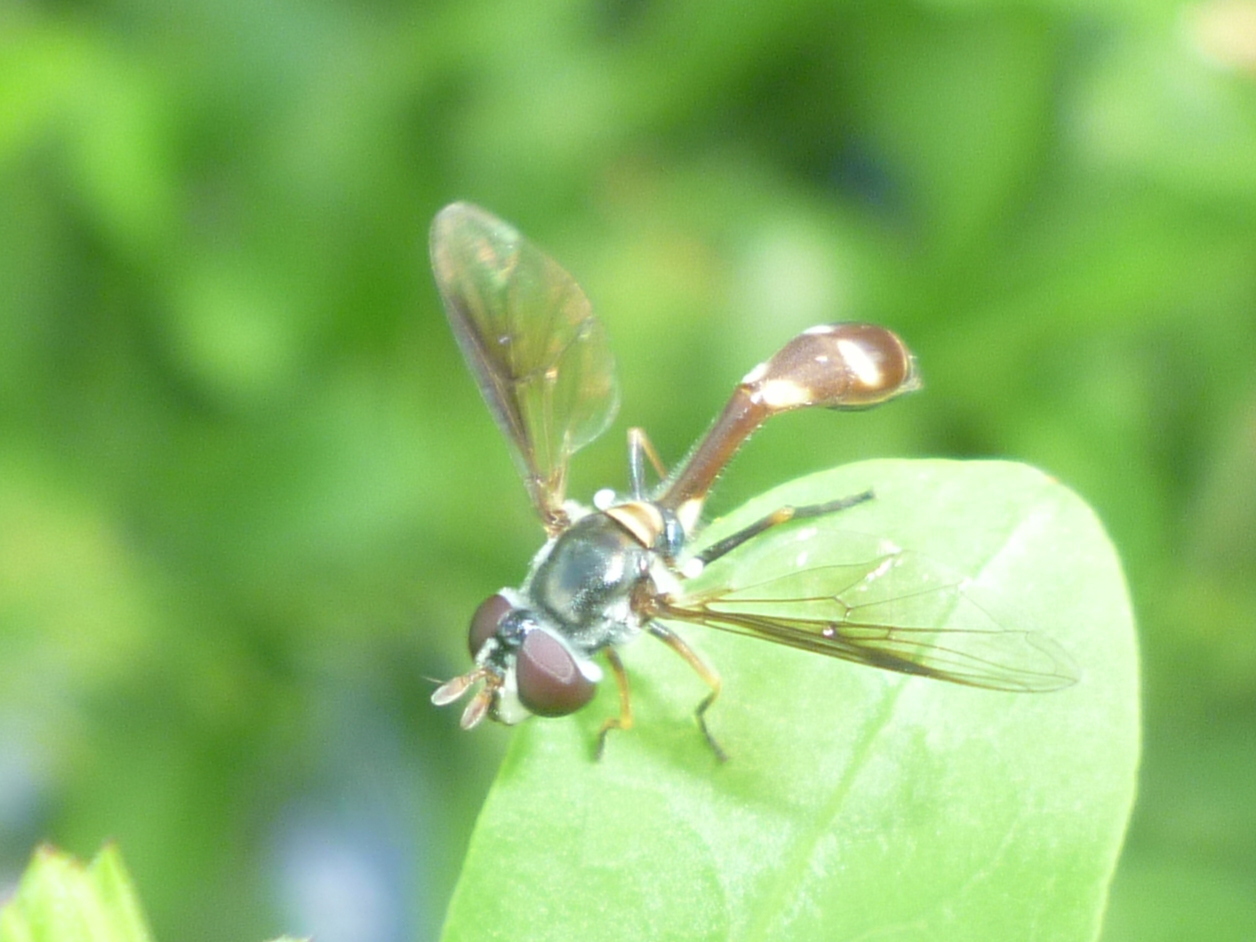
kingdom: Animalia
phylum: Arthropoda
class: Insecta
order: Diptera
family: Syrphidae
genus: Dioprosopa
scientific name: Dioprosopa clavatus
